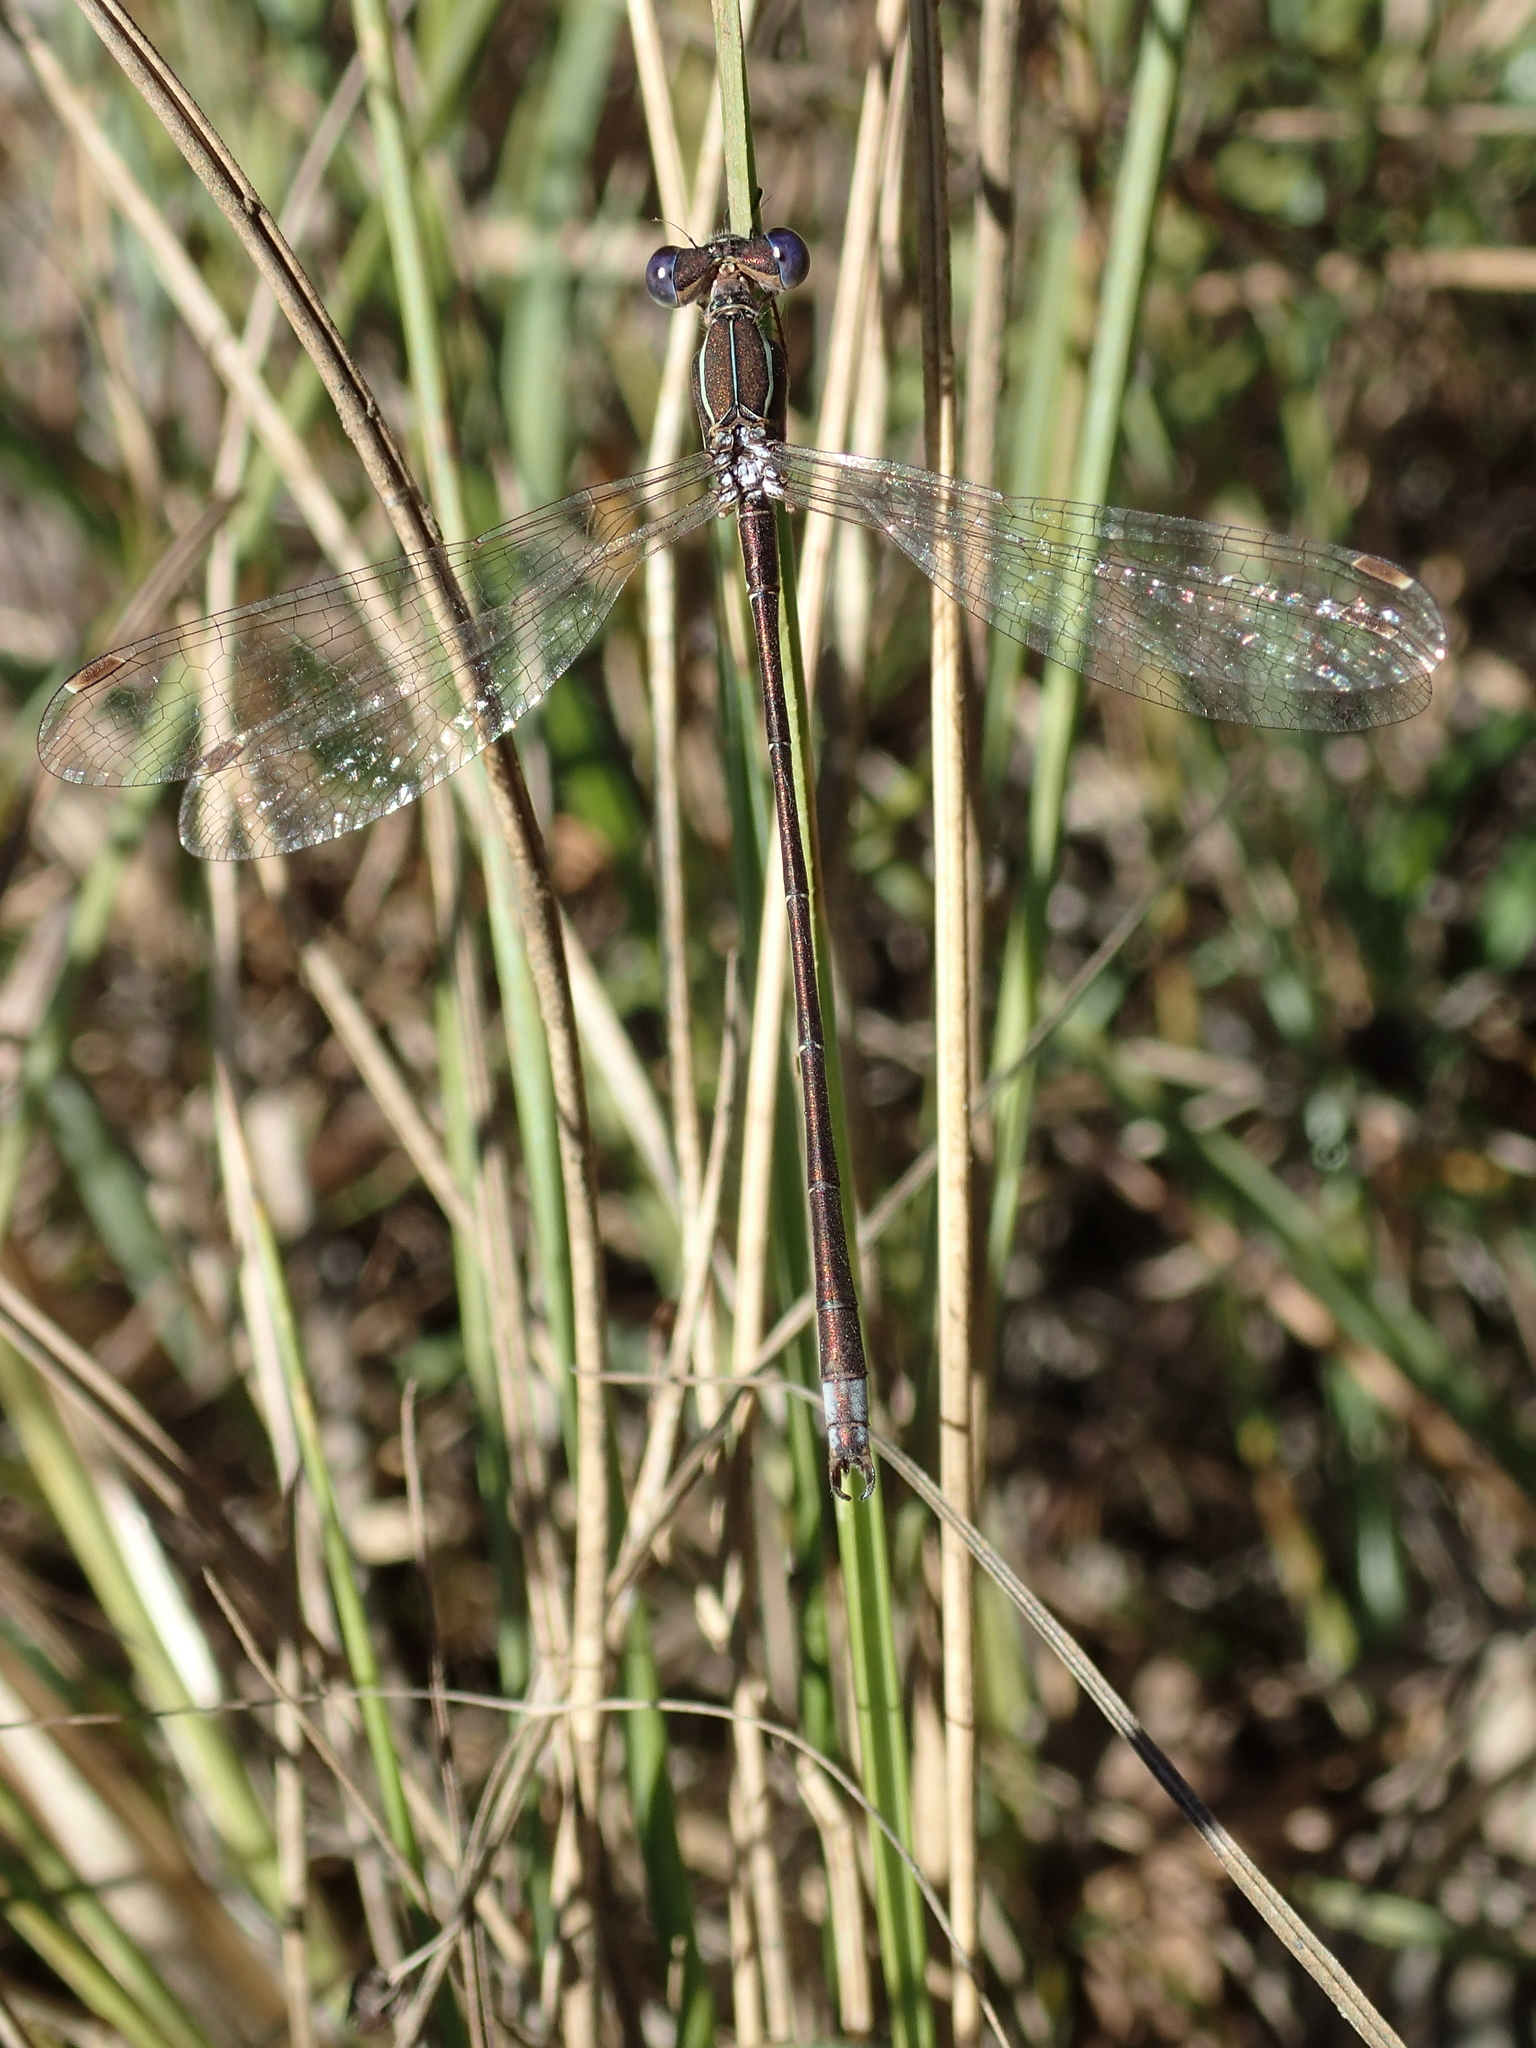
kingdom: Animalia
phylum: Arthropoda
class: Insecta
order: Odonata
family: Lestidae
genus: Lestes
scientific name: Lestes virens
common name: Small emerald spreadwing
